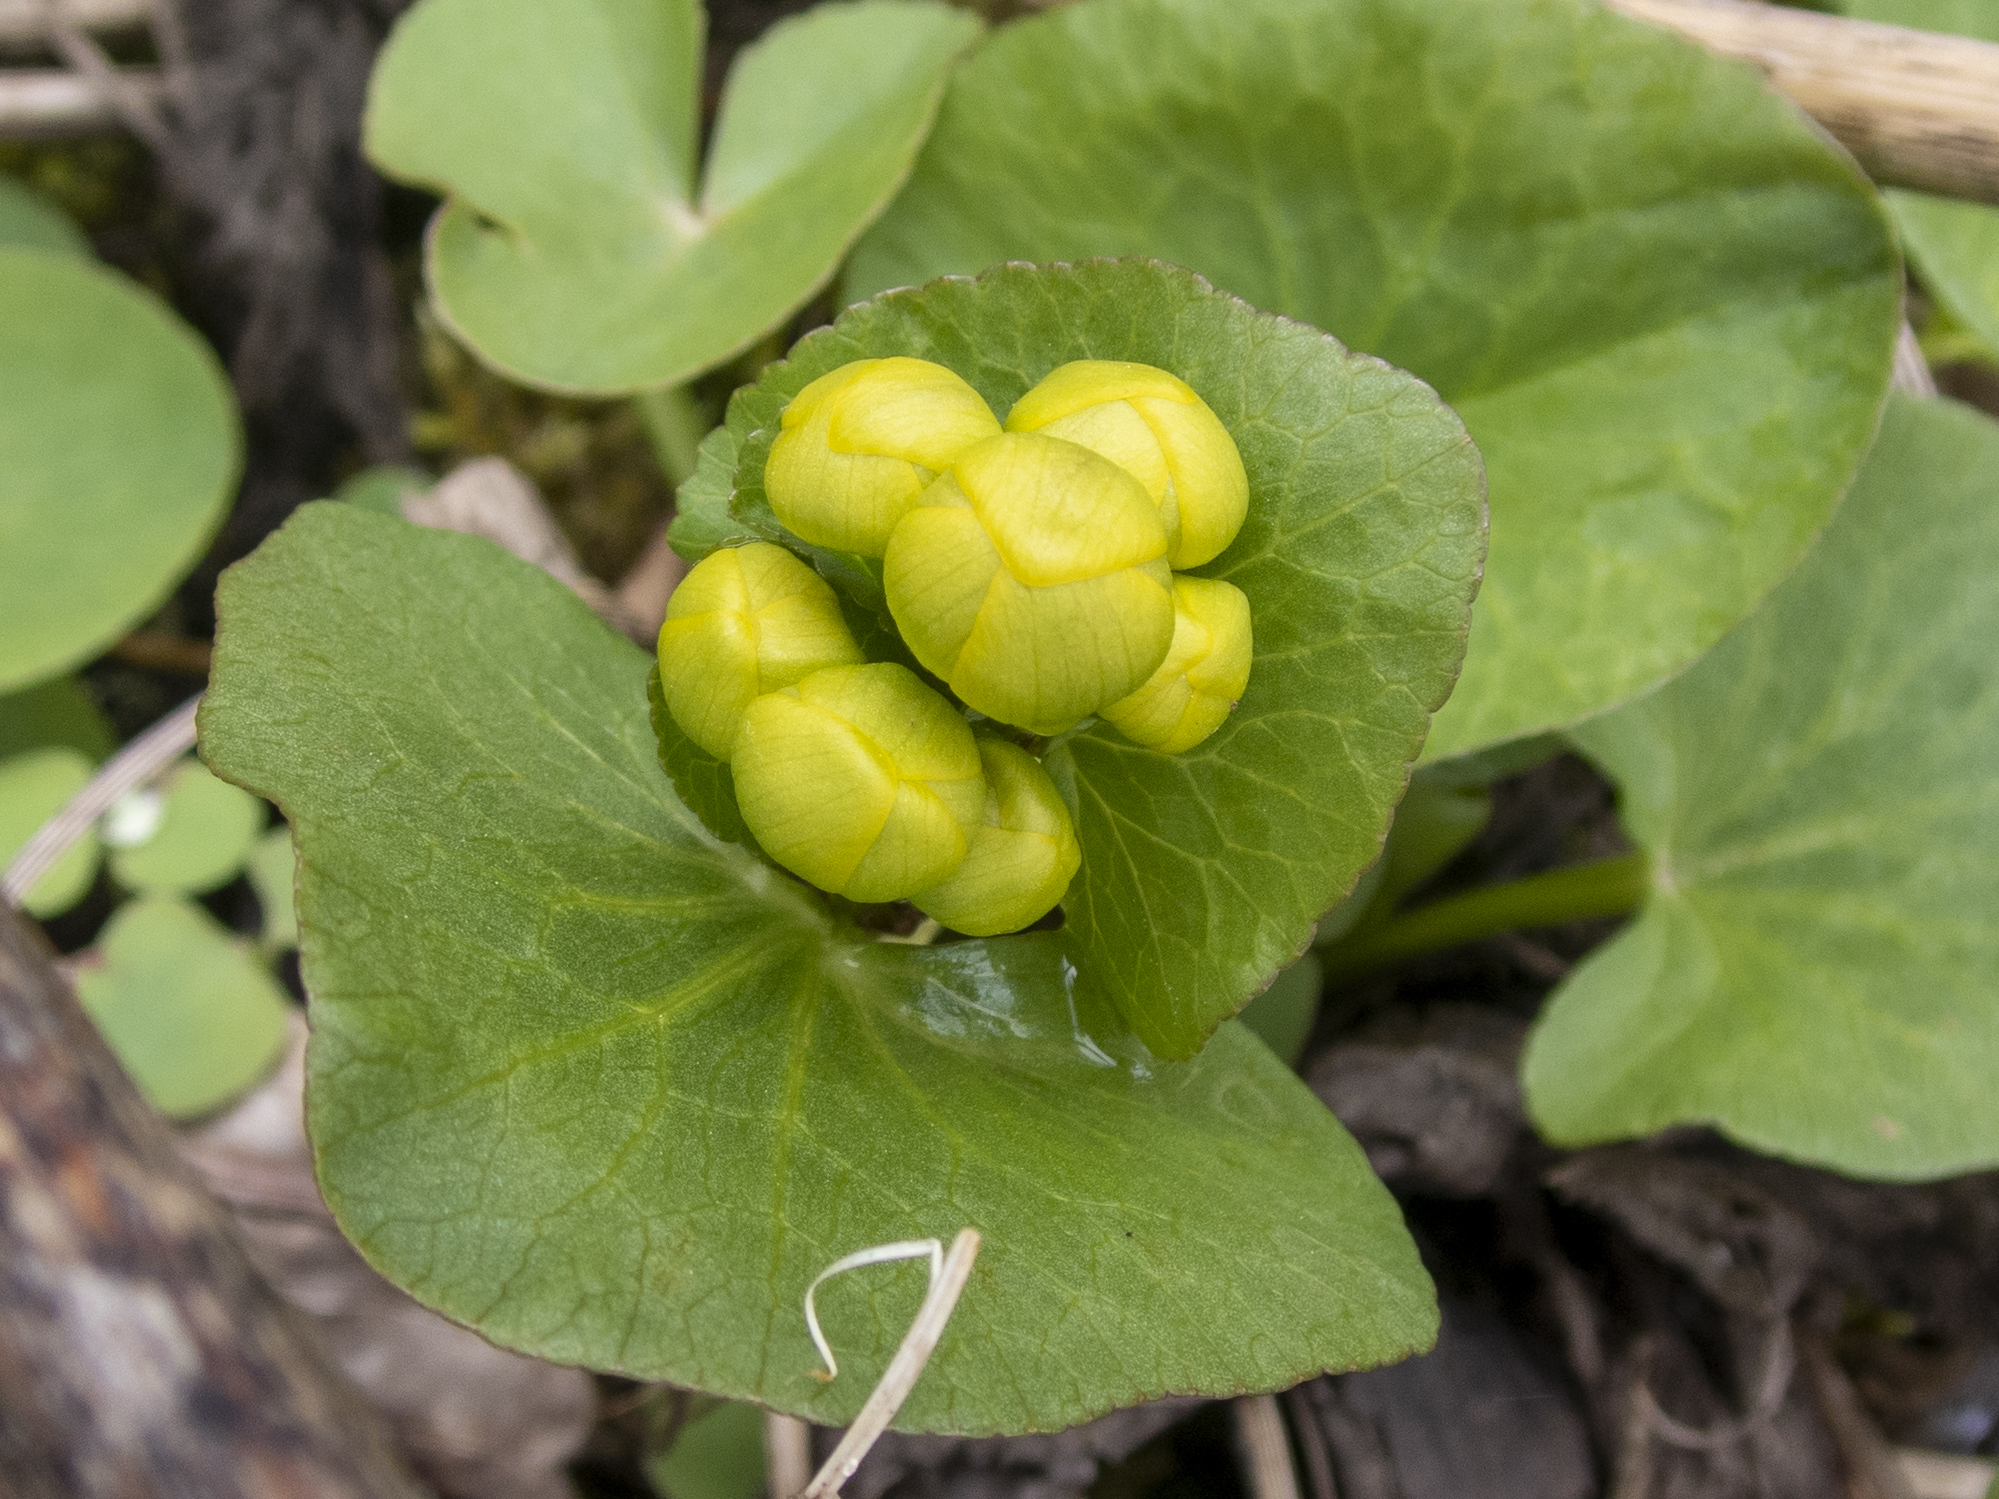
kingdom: Plantae
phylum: Tracheophyta
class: Magnoliopsida
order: Ranunculales
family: Ranunculaceae
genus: Caltha
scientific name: Caltha palustris
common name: Marsh marigold
